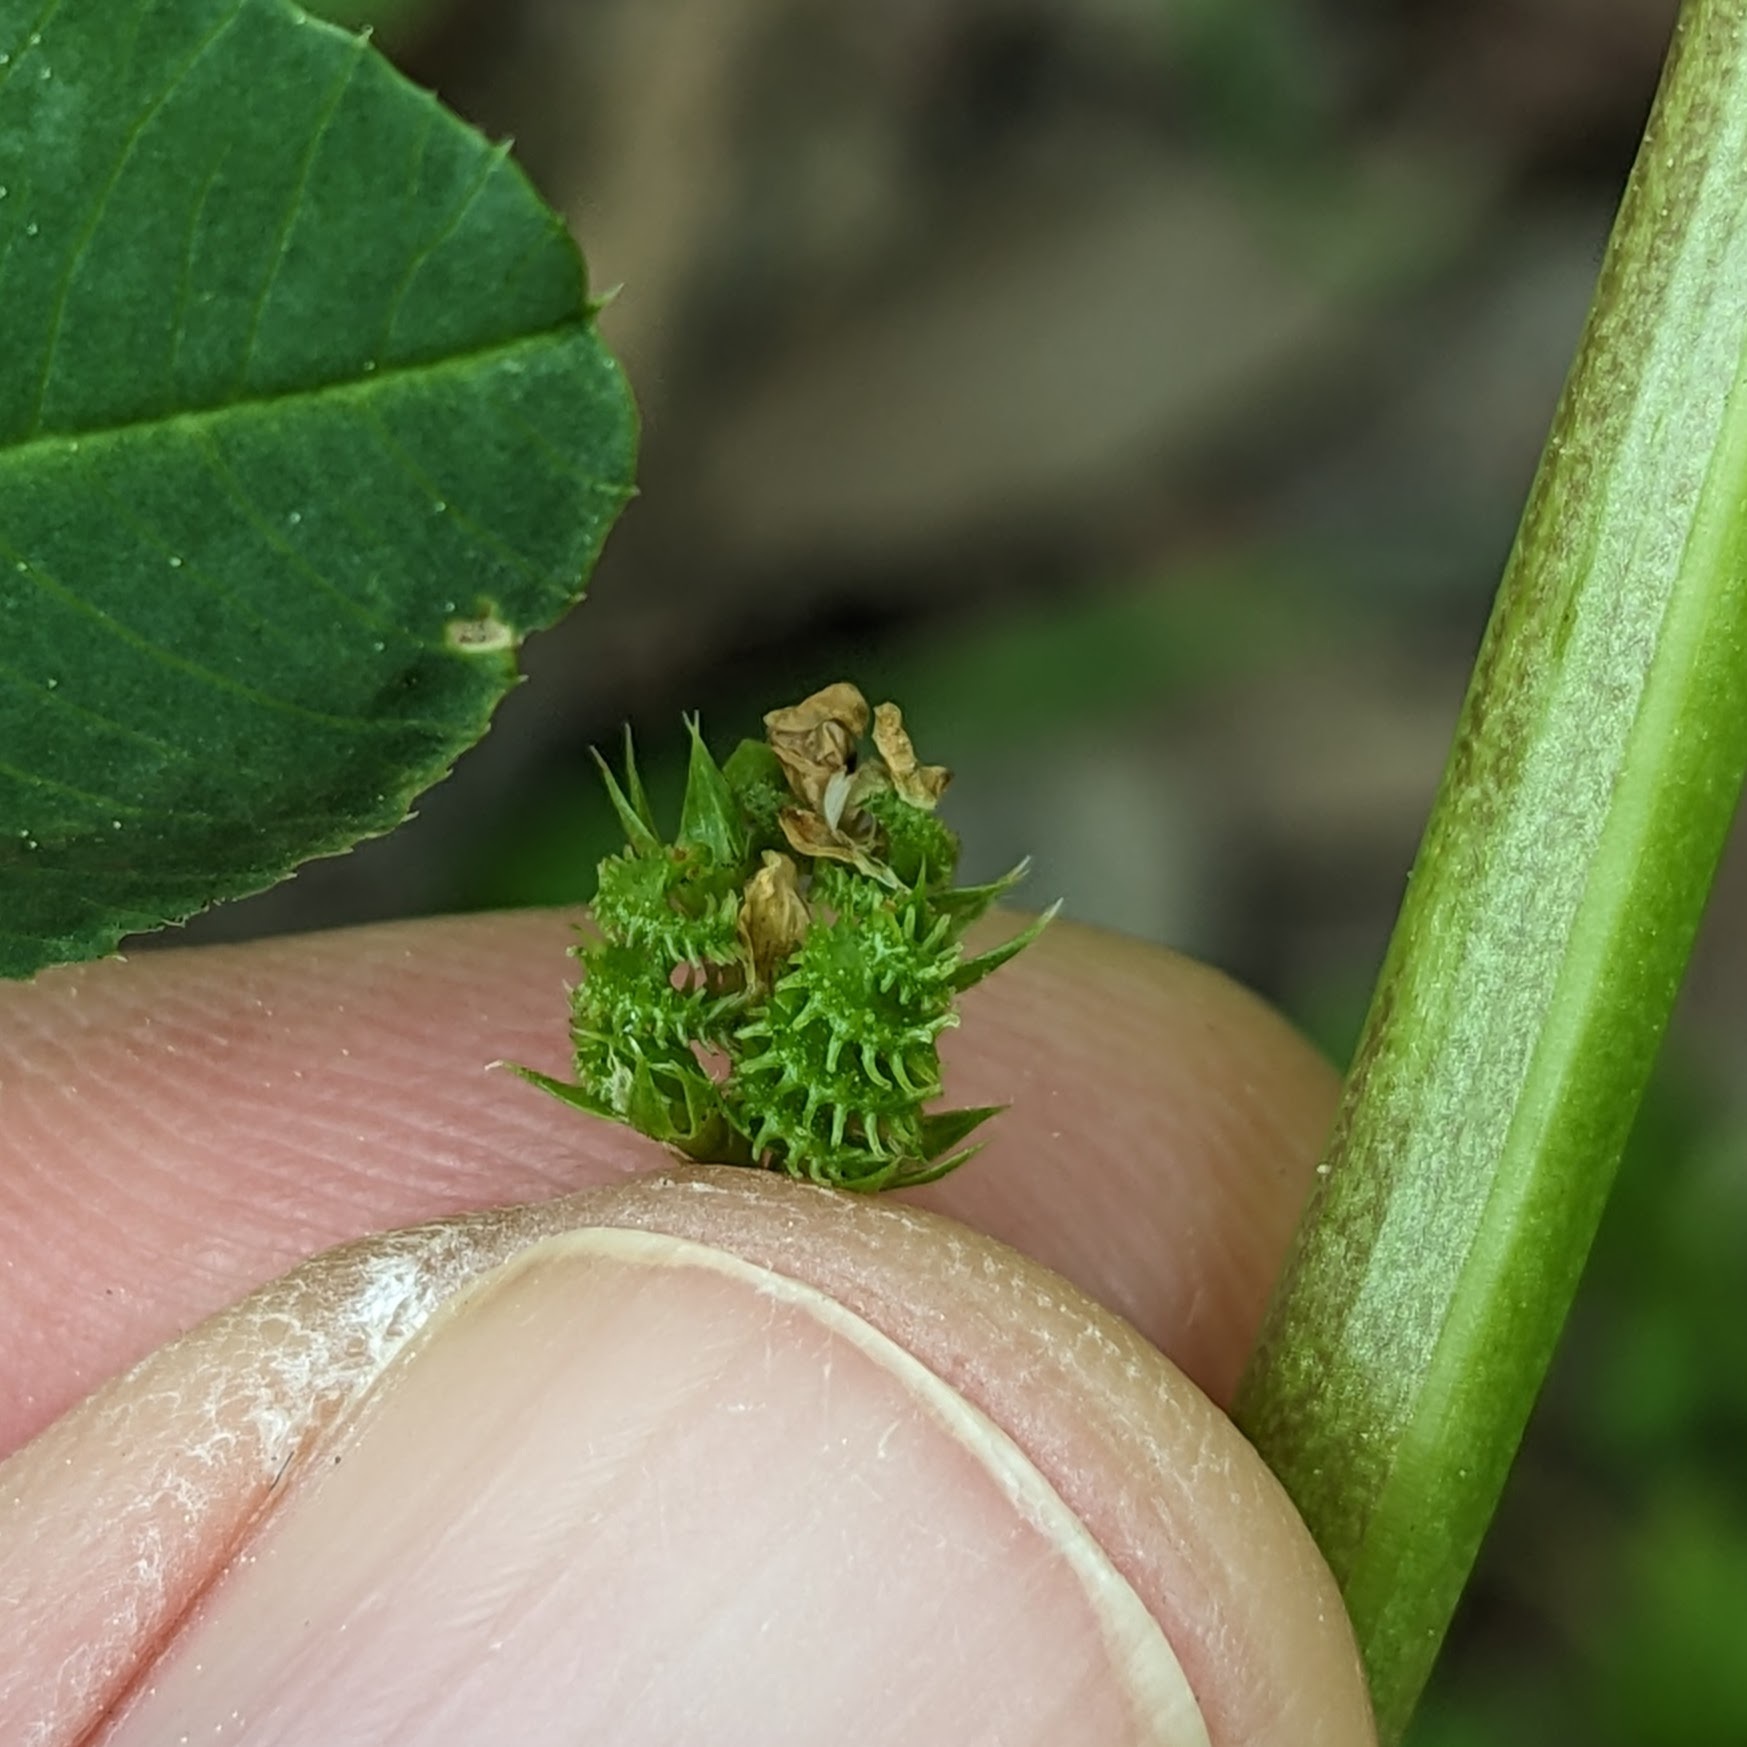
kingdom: Plantae
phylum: Tracheophyta
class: Magnoliopsida
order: Fabales
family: Fabaceae
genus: Medicago
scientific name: Medicago polymorpha
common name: Burclover
